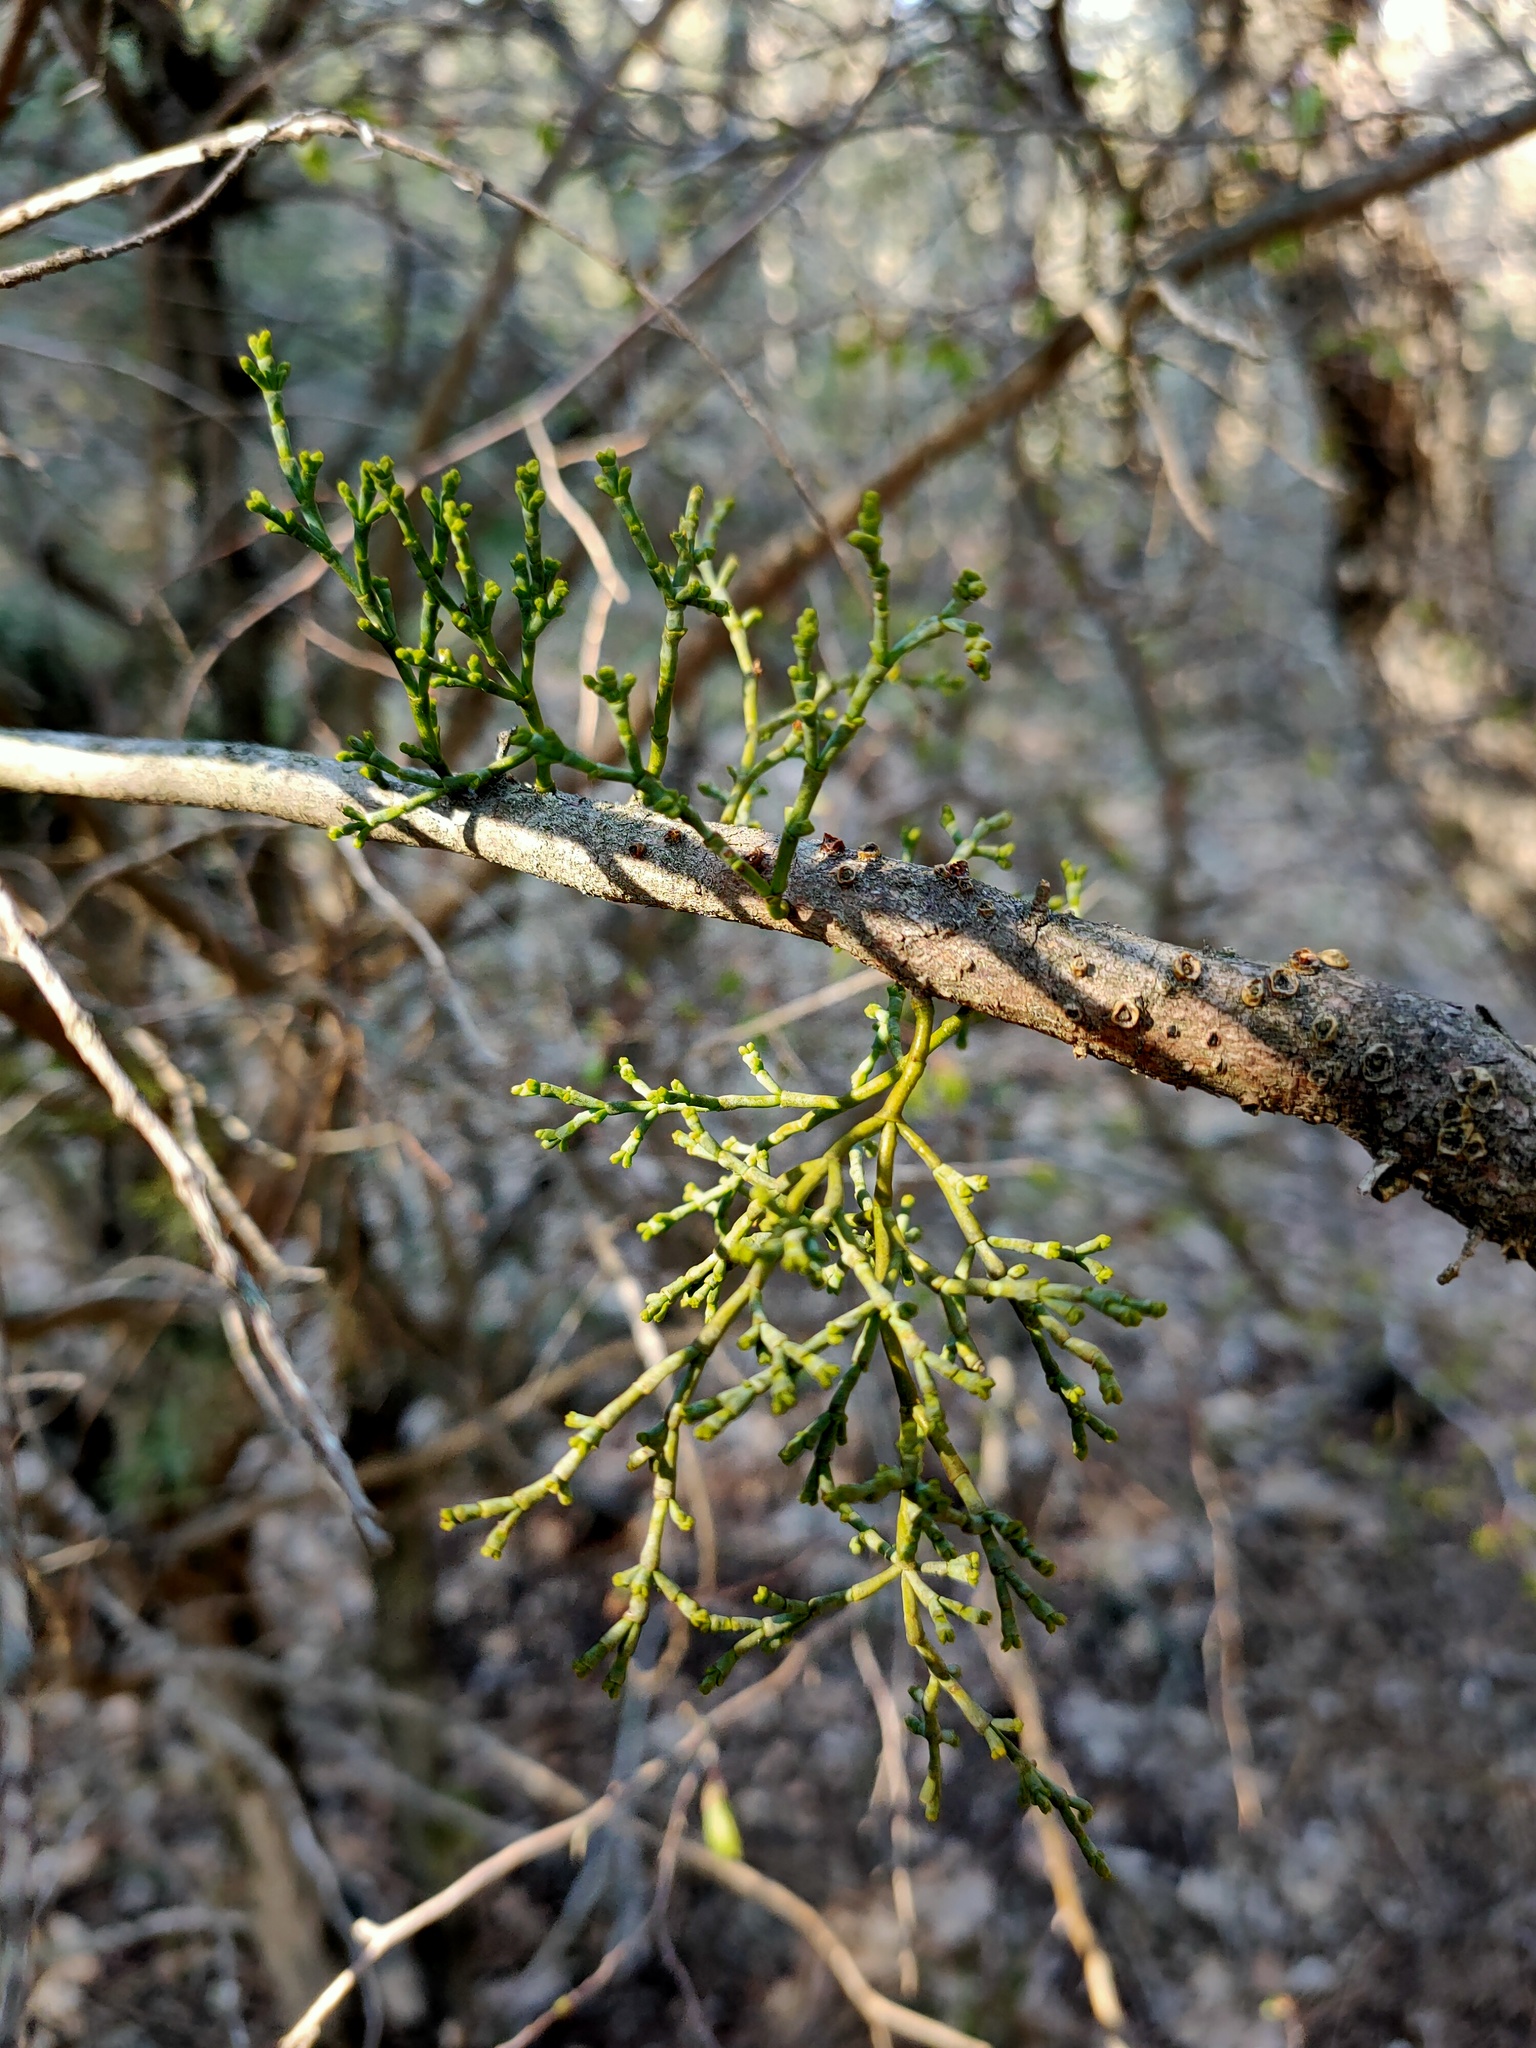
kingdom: Plantae
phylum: Tracheophyta
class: Magnoliopsida
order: Santalales
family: Viscaceae
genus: Arceuthobium
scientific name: Arceuthobium oxycedri
